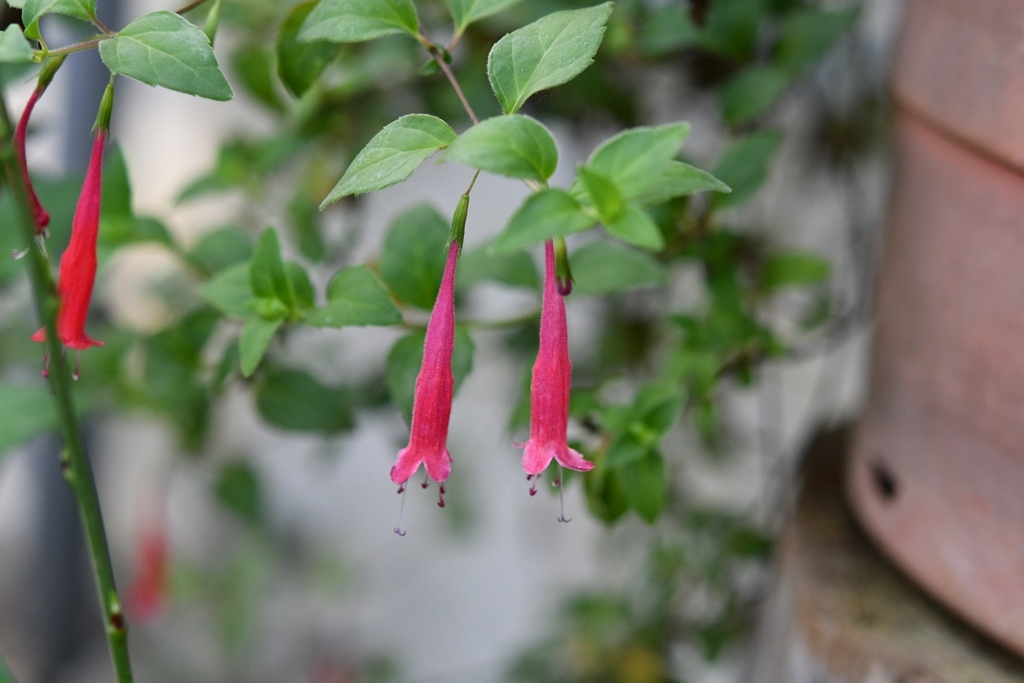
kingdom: Plantae
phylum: Tracheophyta
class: Magnoliopsida
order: Lamiales
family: Lamiaceae
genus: Clinopodium
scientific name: Clinopodium selerianum
